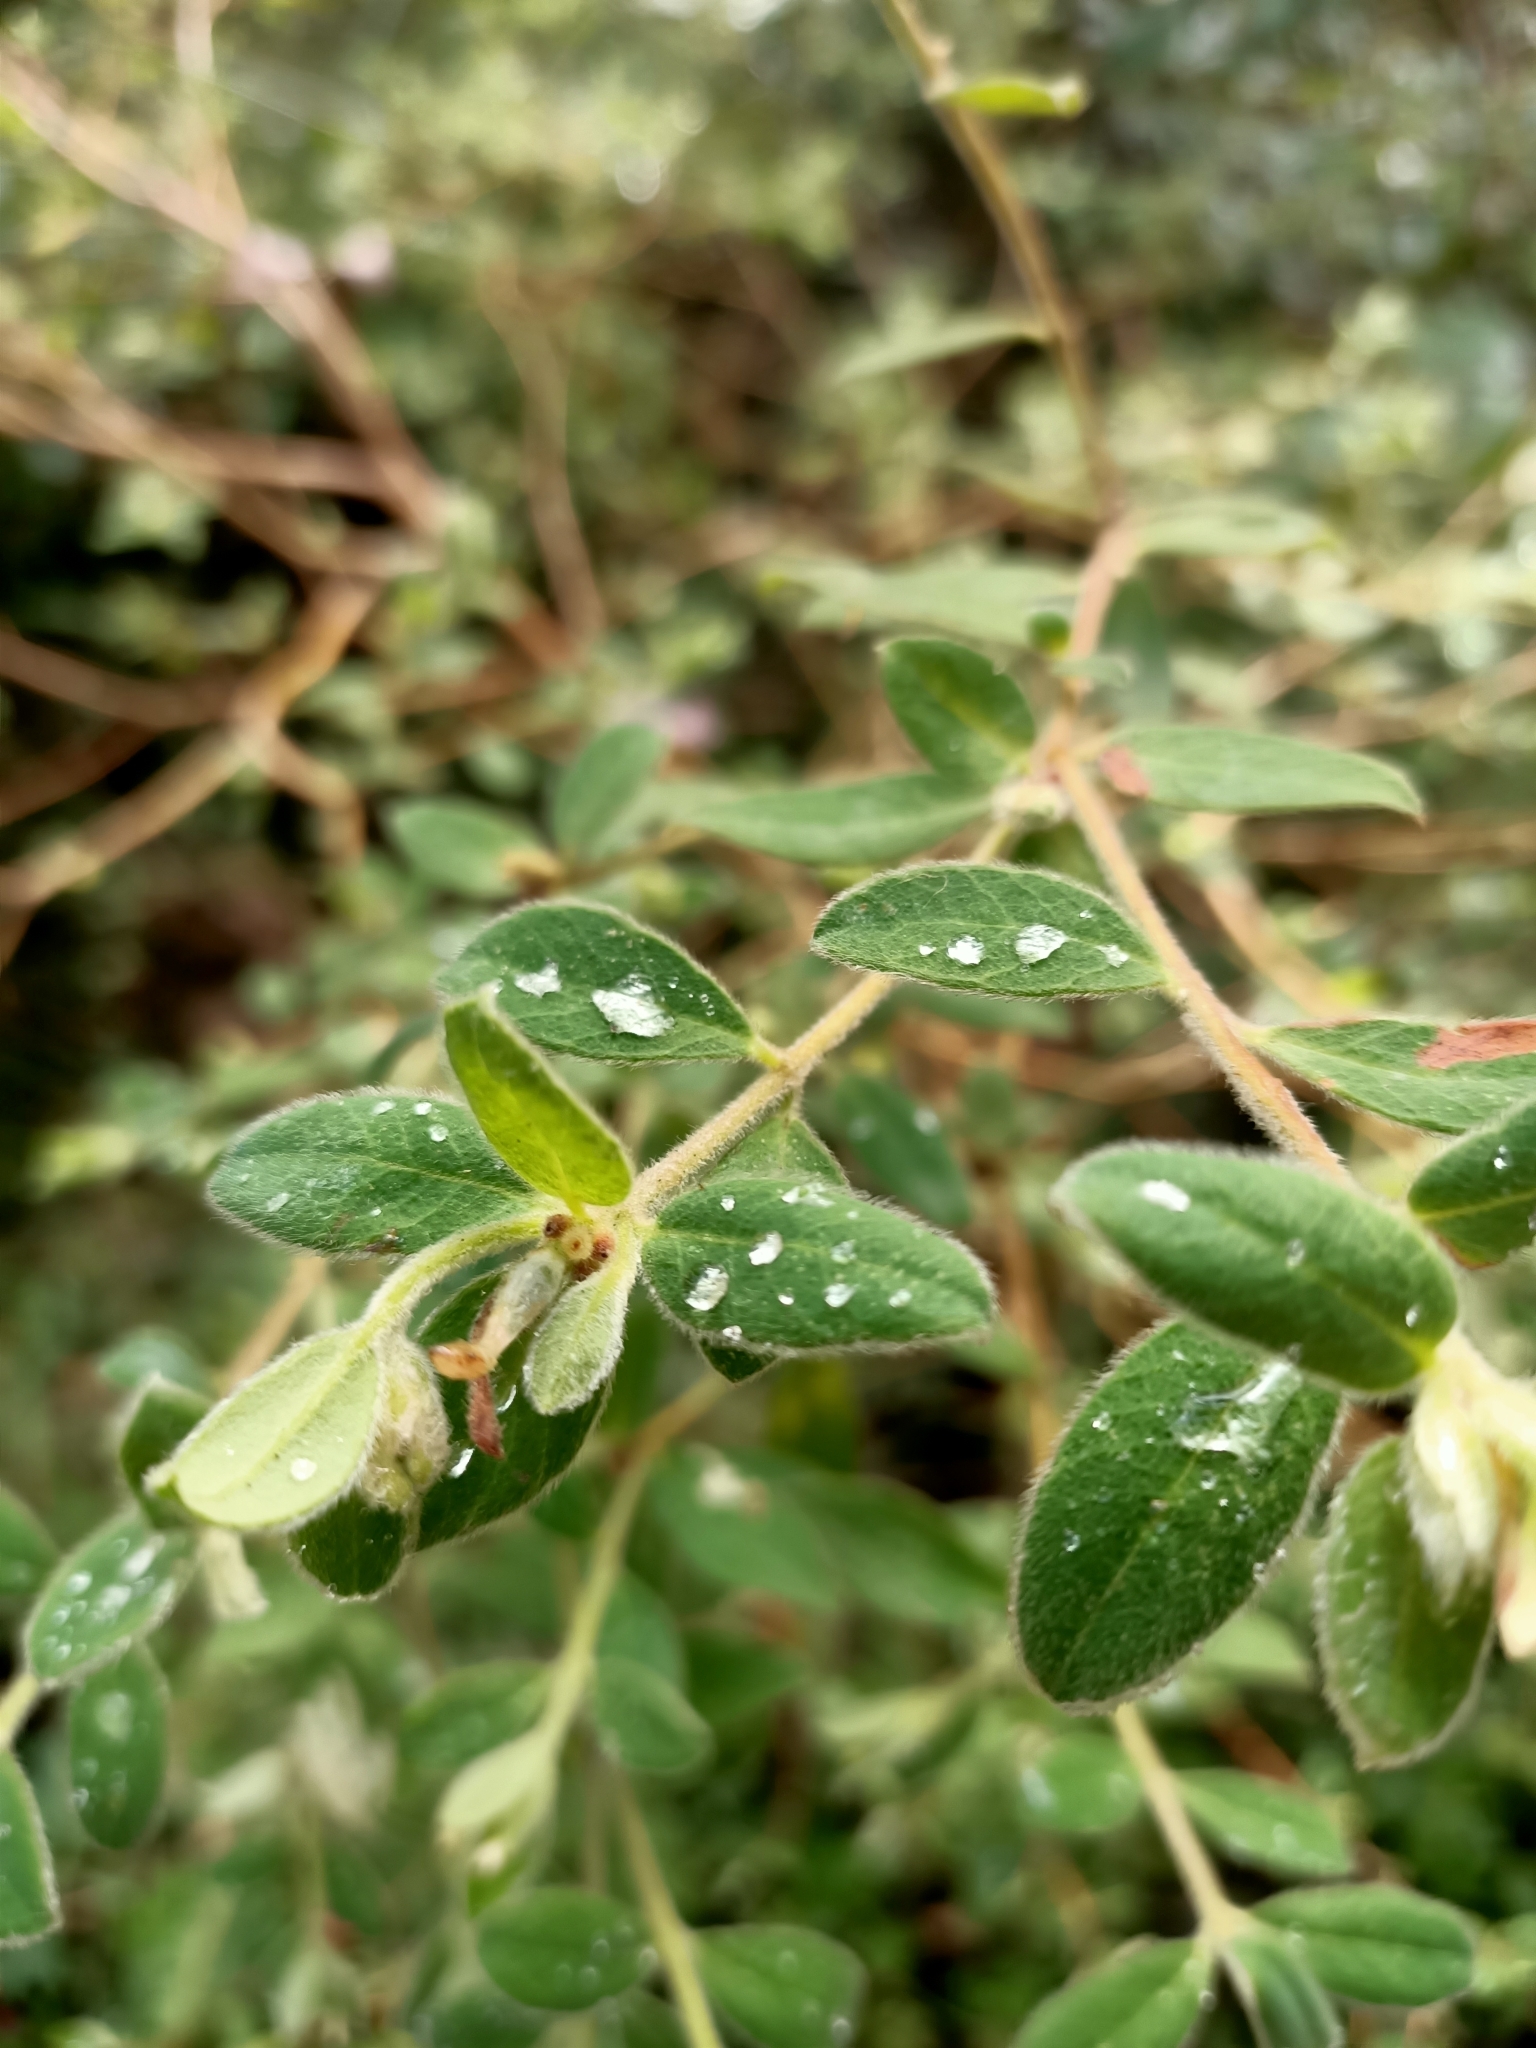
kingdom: Plantae
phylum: Tracheophyta
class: Magnoliopsida
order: Malvales
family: Thymelaeaceae
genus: Pimelea
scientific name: Pimelea altior
